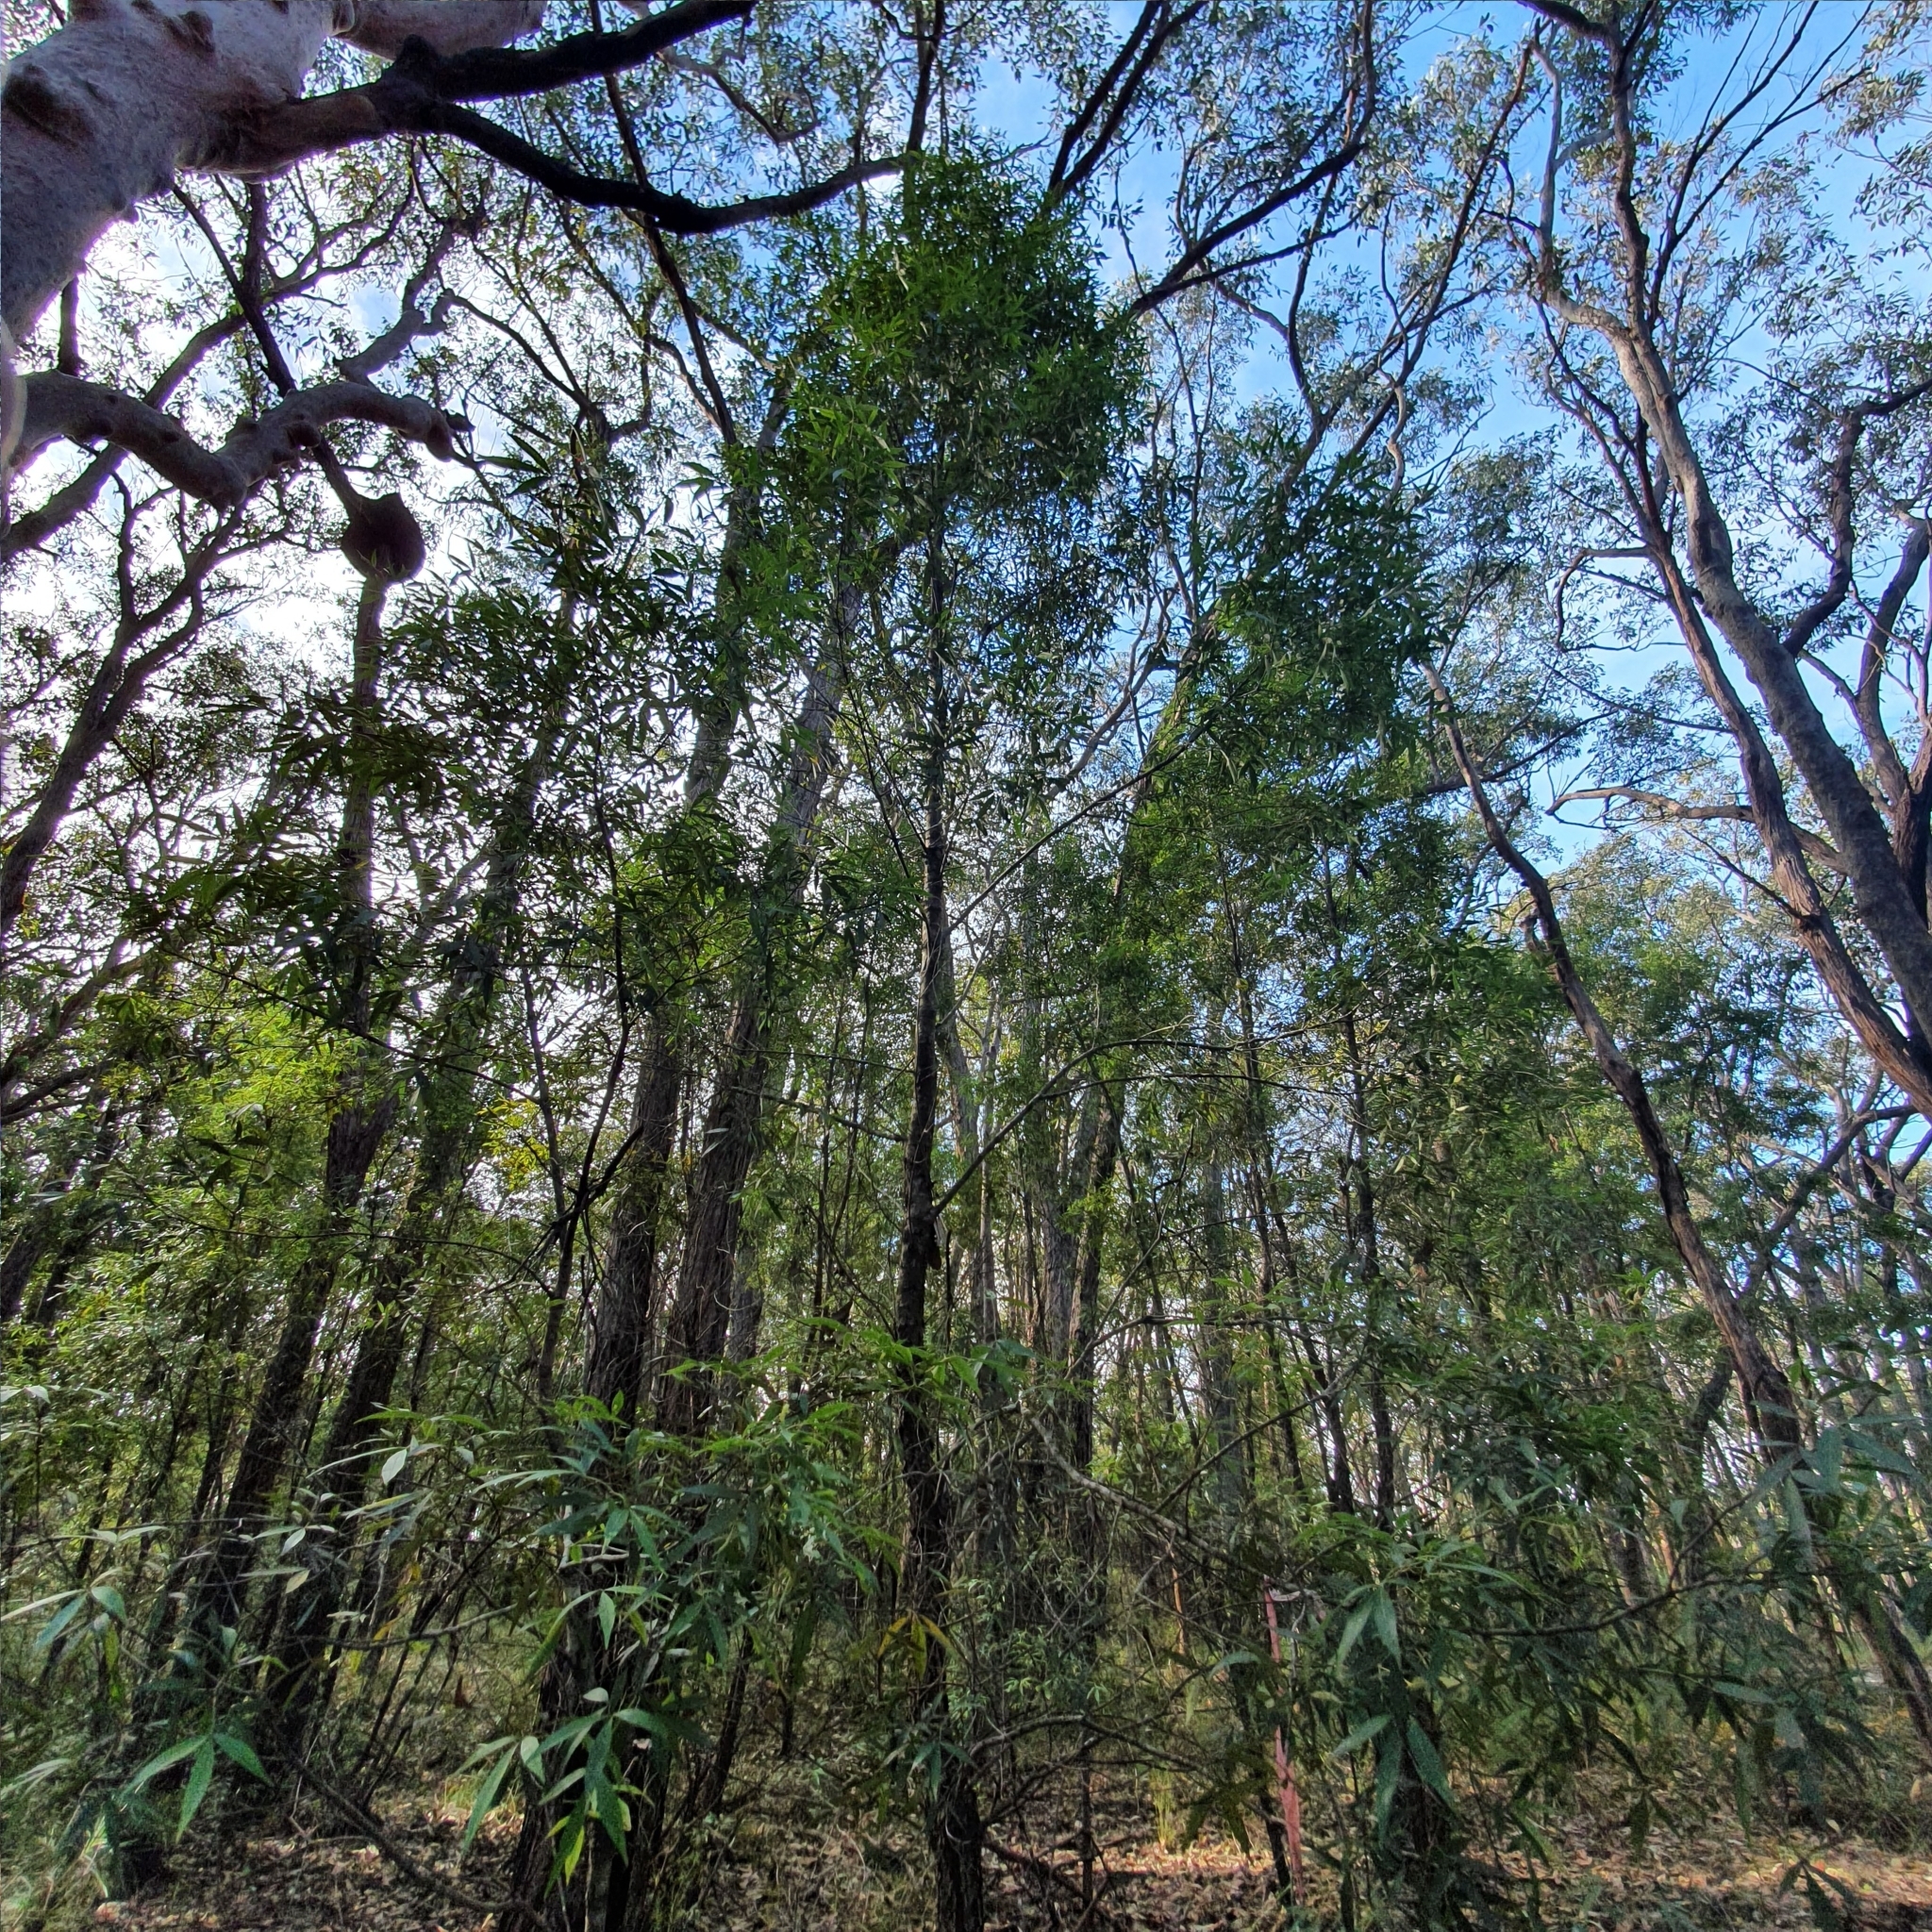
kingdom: Plantae
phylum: Tracheophyta
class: Magnoliopsida
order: Oxalidales
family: Cunoniaceae
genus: Ceratopetalum
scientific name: Ceratopetalum gummiferum
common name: Christmasbush
